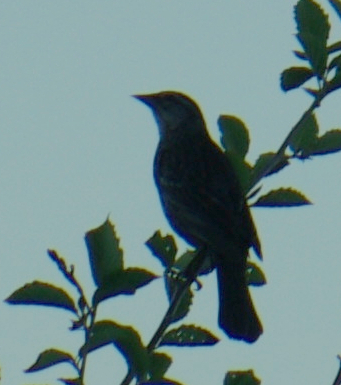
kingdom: Animalia
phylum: Chordata
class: Aves
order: Passeriformes
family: Icteridae
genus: Agelaius
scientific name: Agelaius phoeniceus
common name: Red-winged blackbird
